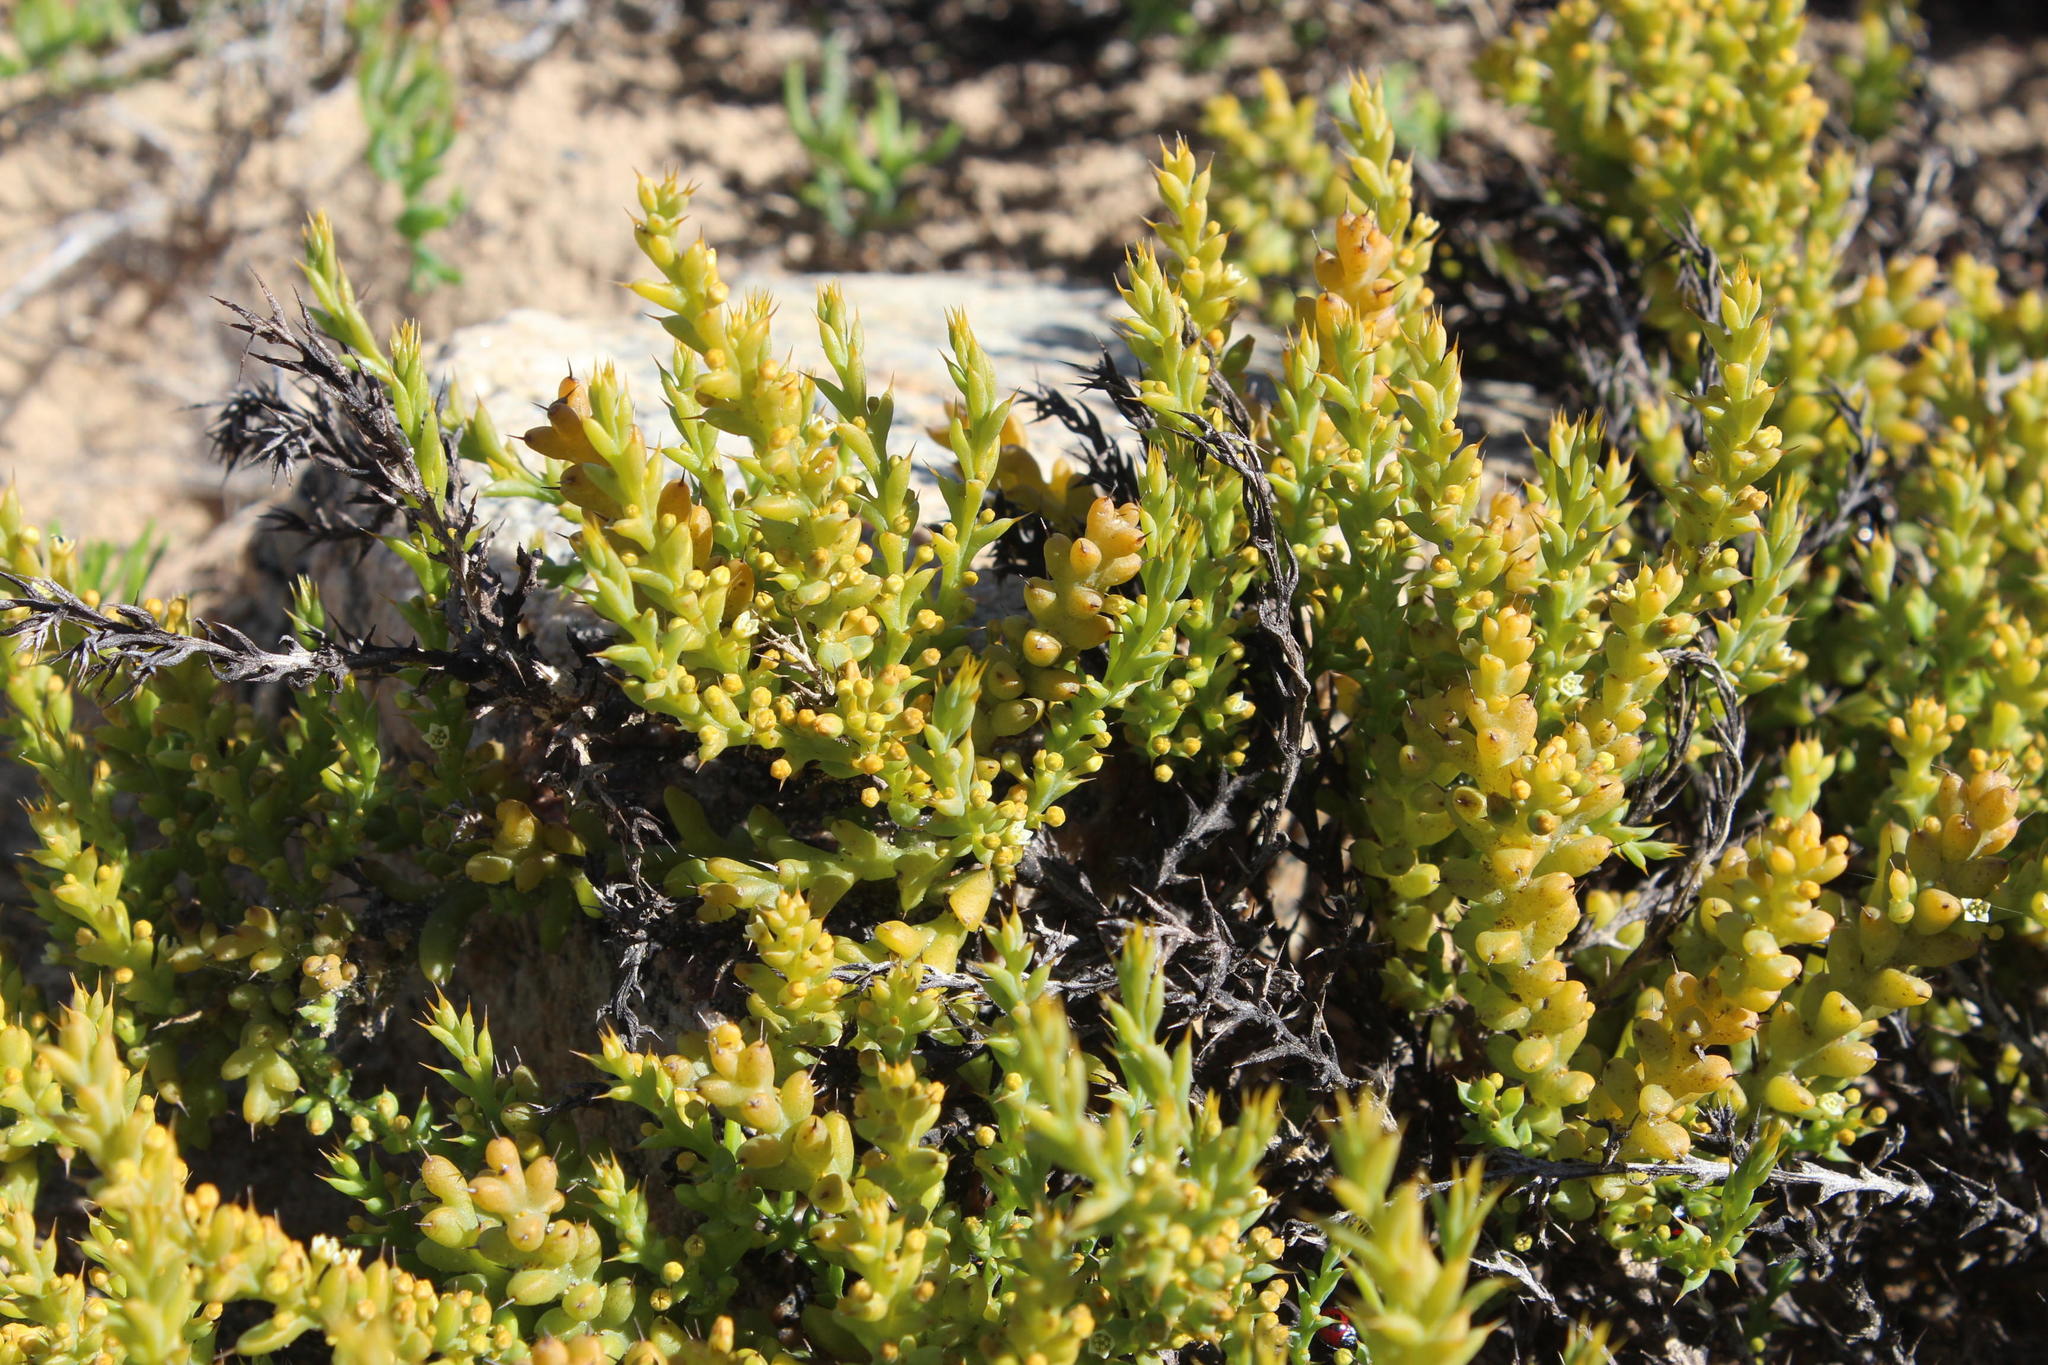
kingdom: Plantae
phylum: Tracheophyta
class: Magnoliopsida
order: Santalales
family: Thesiaceae
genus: Thesium
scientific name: Thesium spinosum
